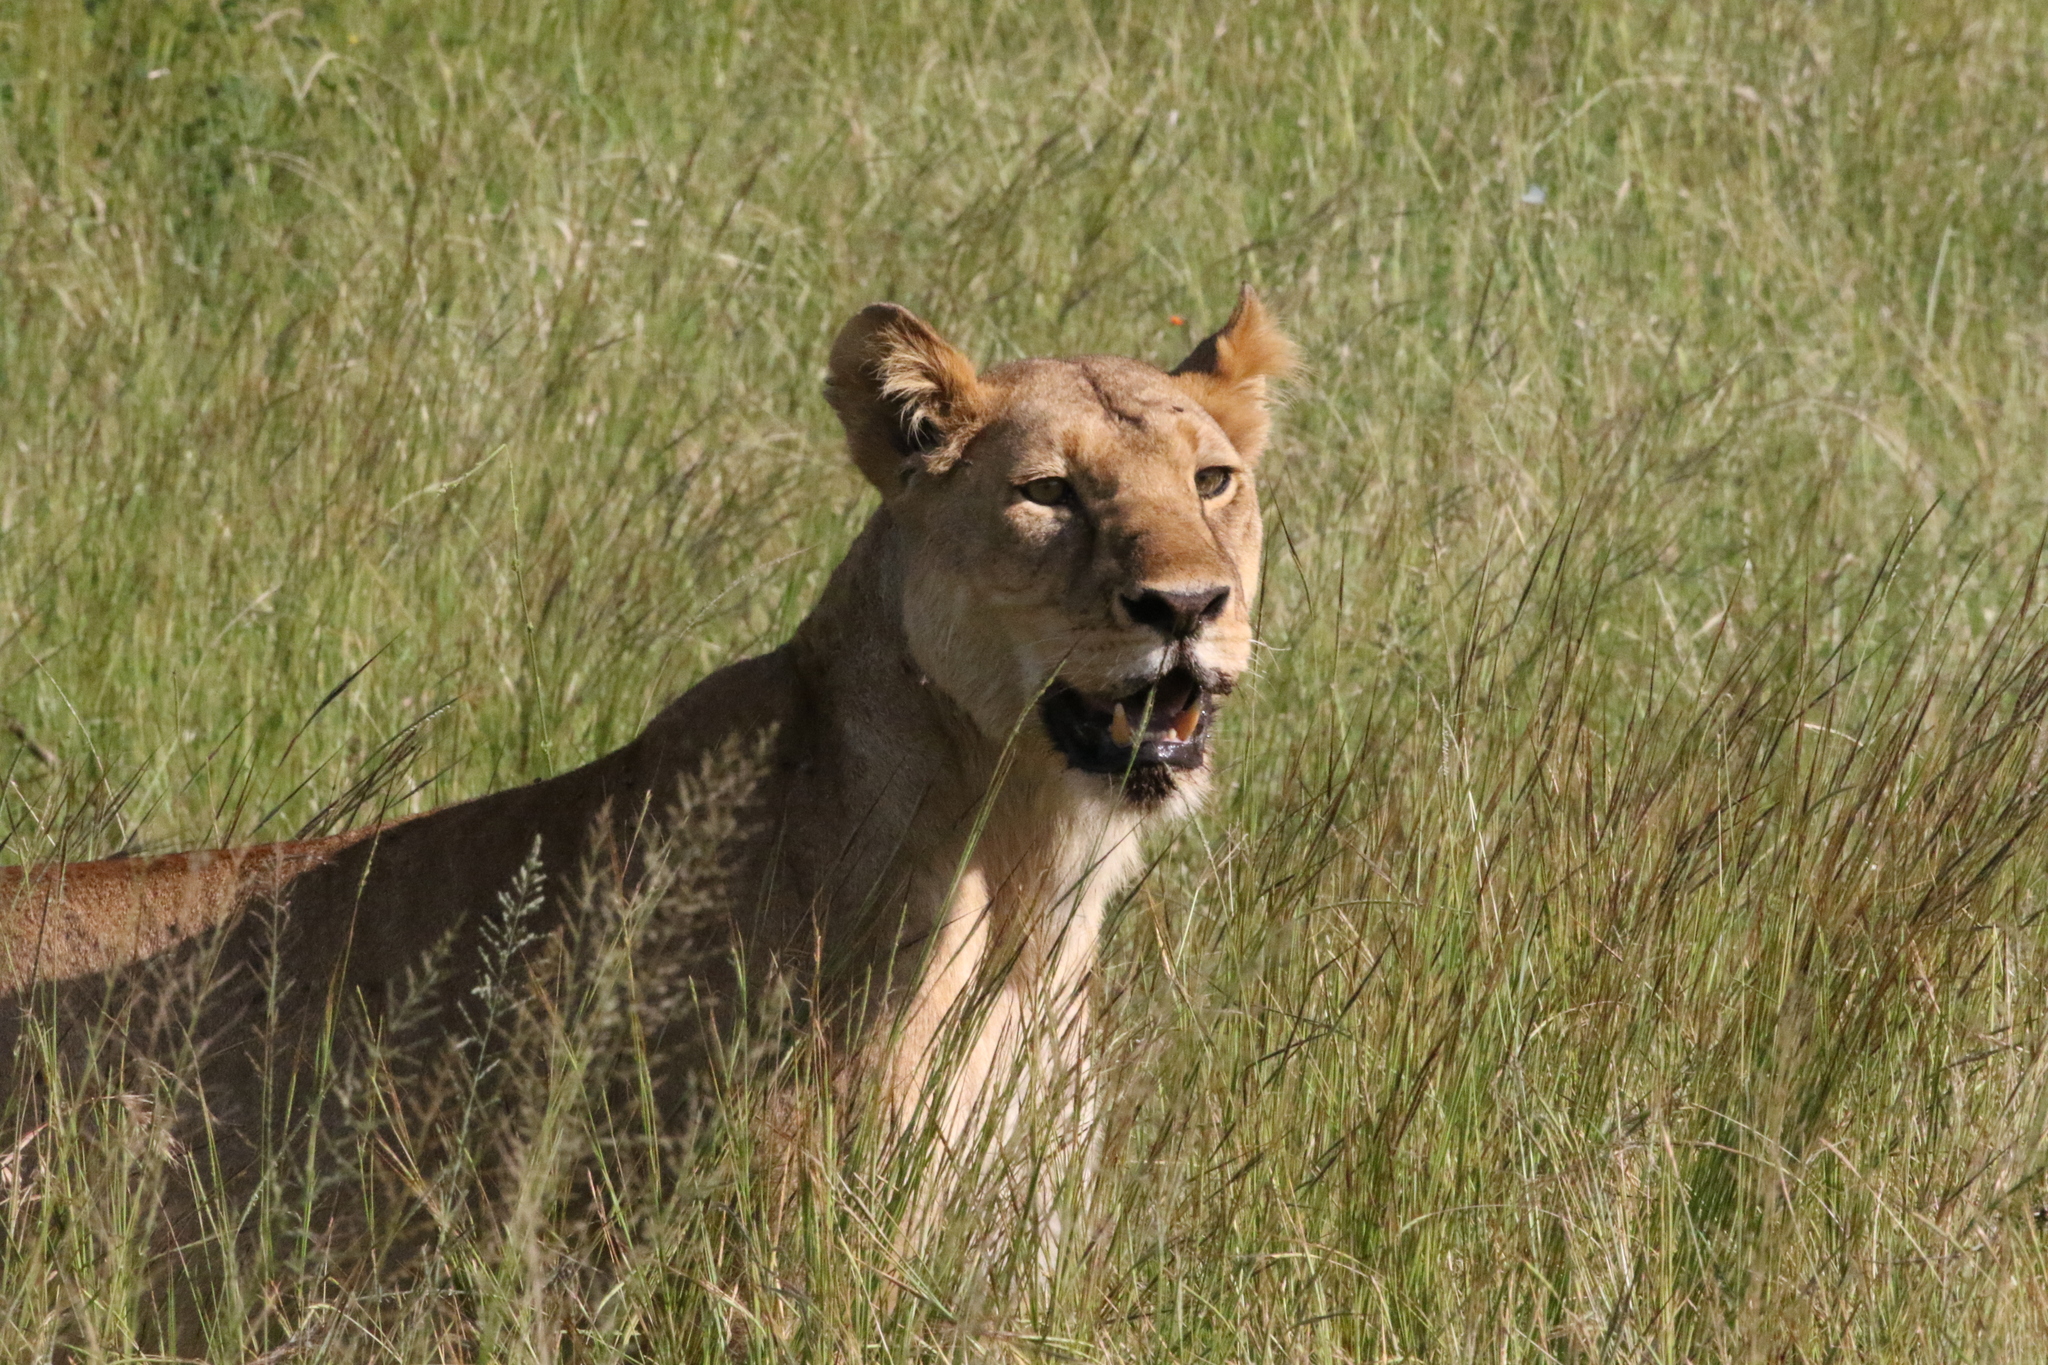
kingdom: Animalia
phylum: Chordata
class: Mammalia
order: Carnivora
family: Felidae
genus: Panthera
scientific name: Panthera leo
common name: Lion
